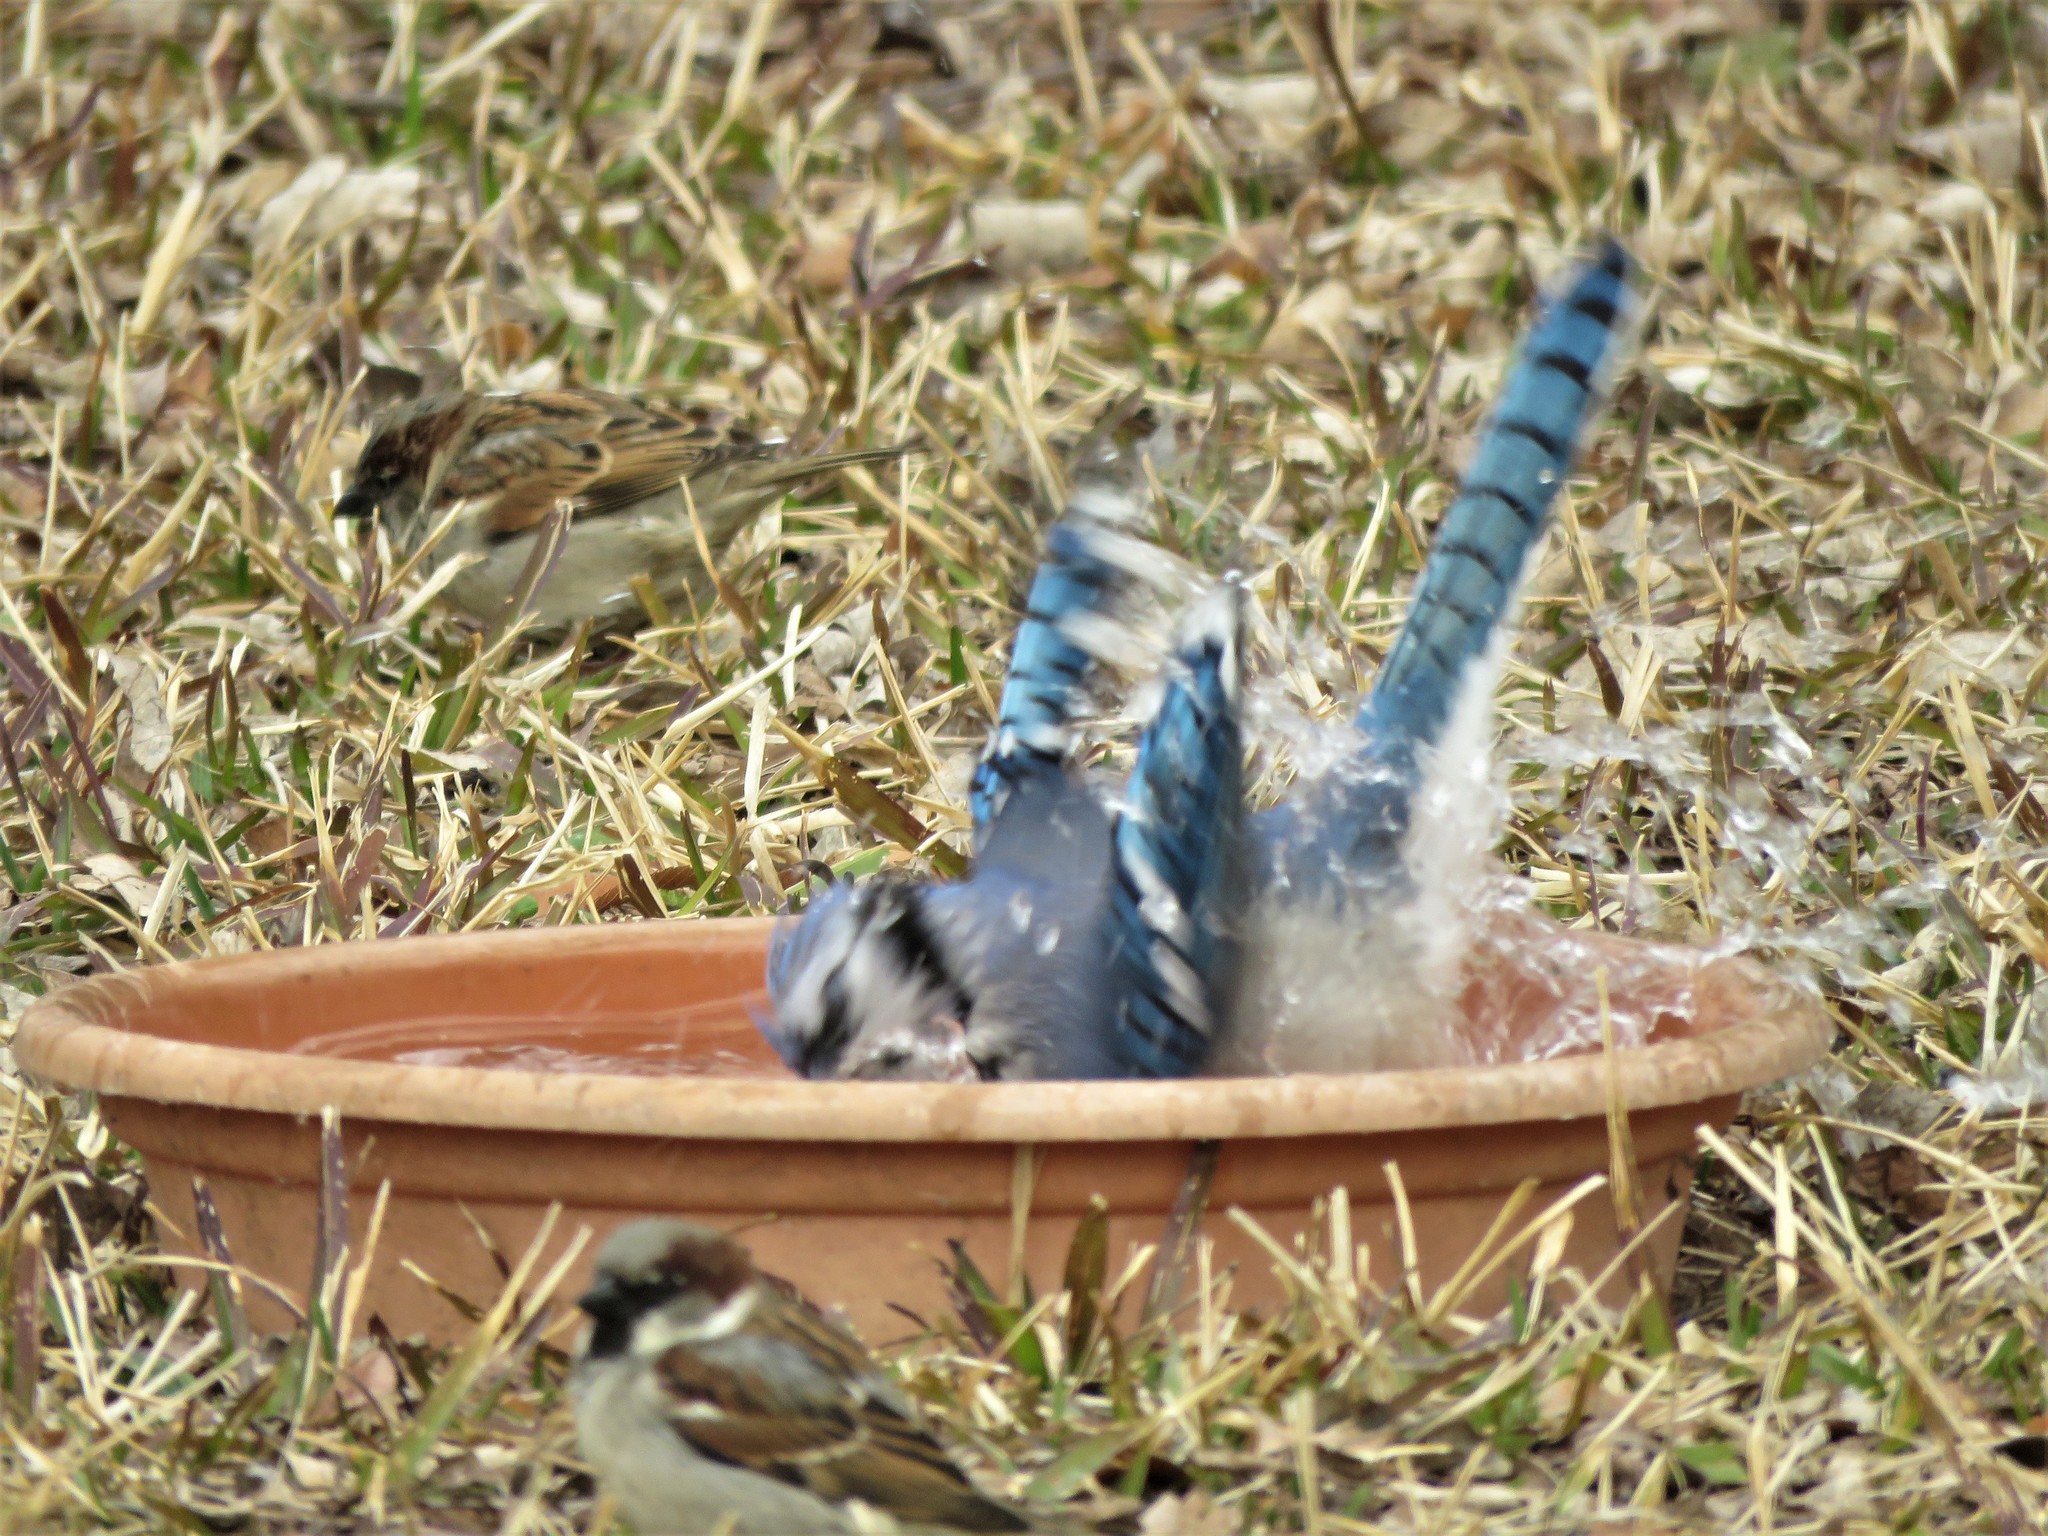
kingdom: Animalia
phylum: Chordata
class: Aves
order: Passeriformes
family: Corvidae
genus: Cyanocitta
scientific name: Cyanocitta cristata
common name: Blue jay
